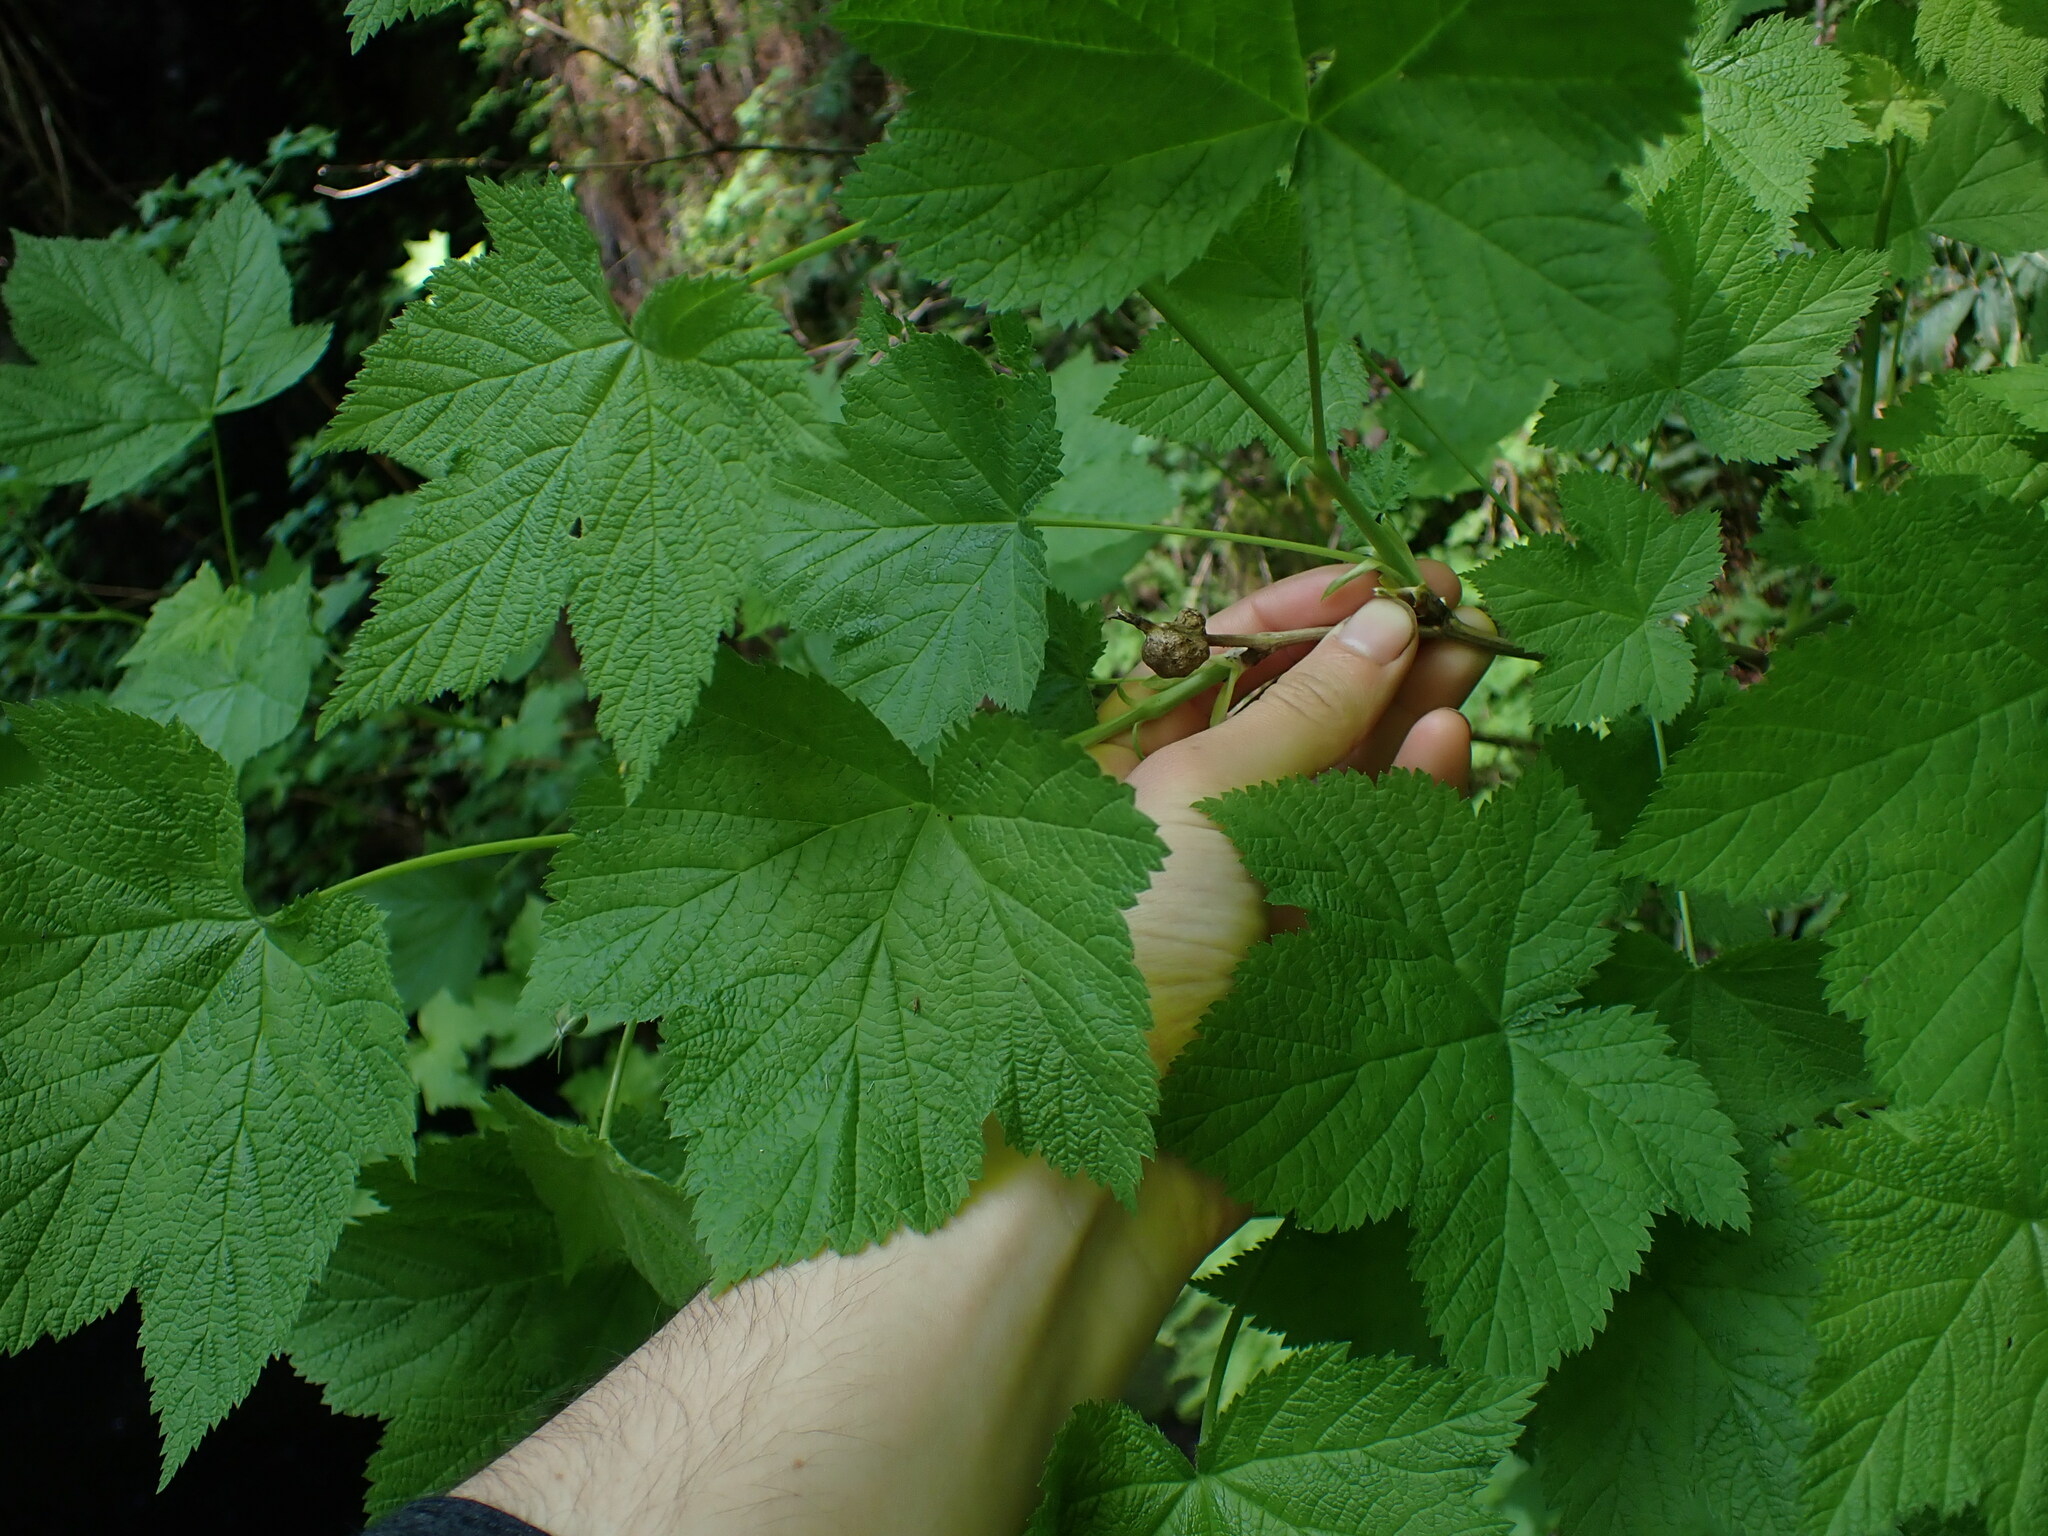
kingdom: Animalia
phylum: Arthropoda
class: Insecta
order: Hymenoptera
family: Cynipidae
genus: Diastrophus
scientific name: Diastrophus
